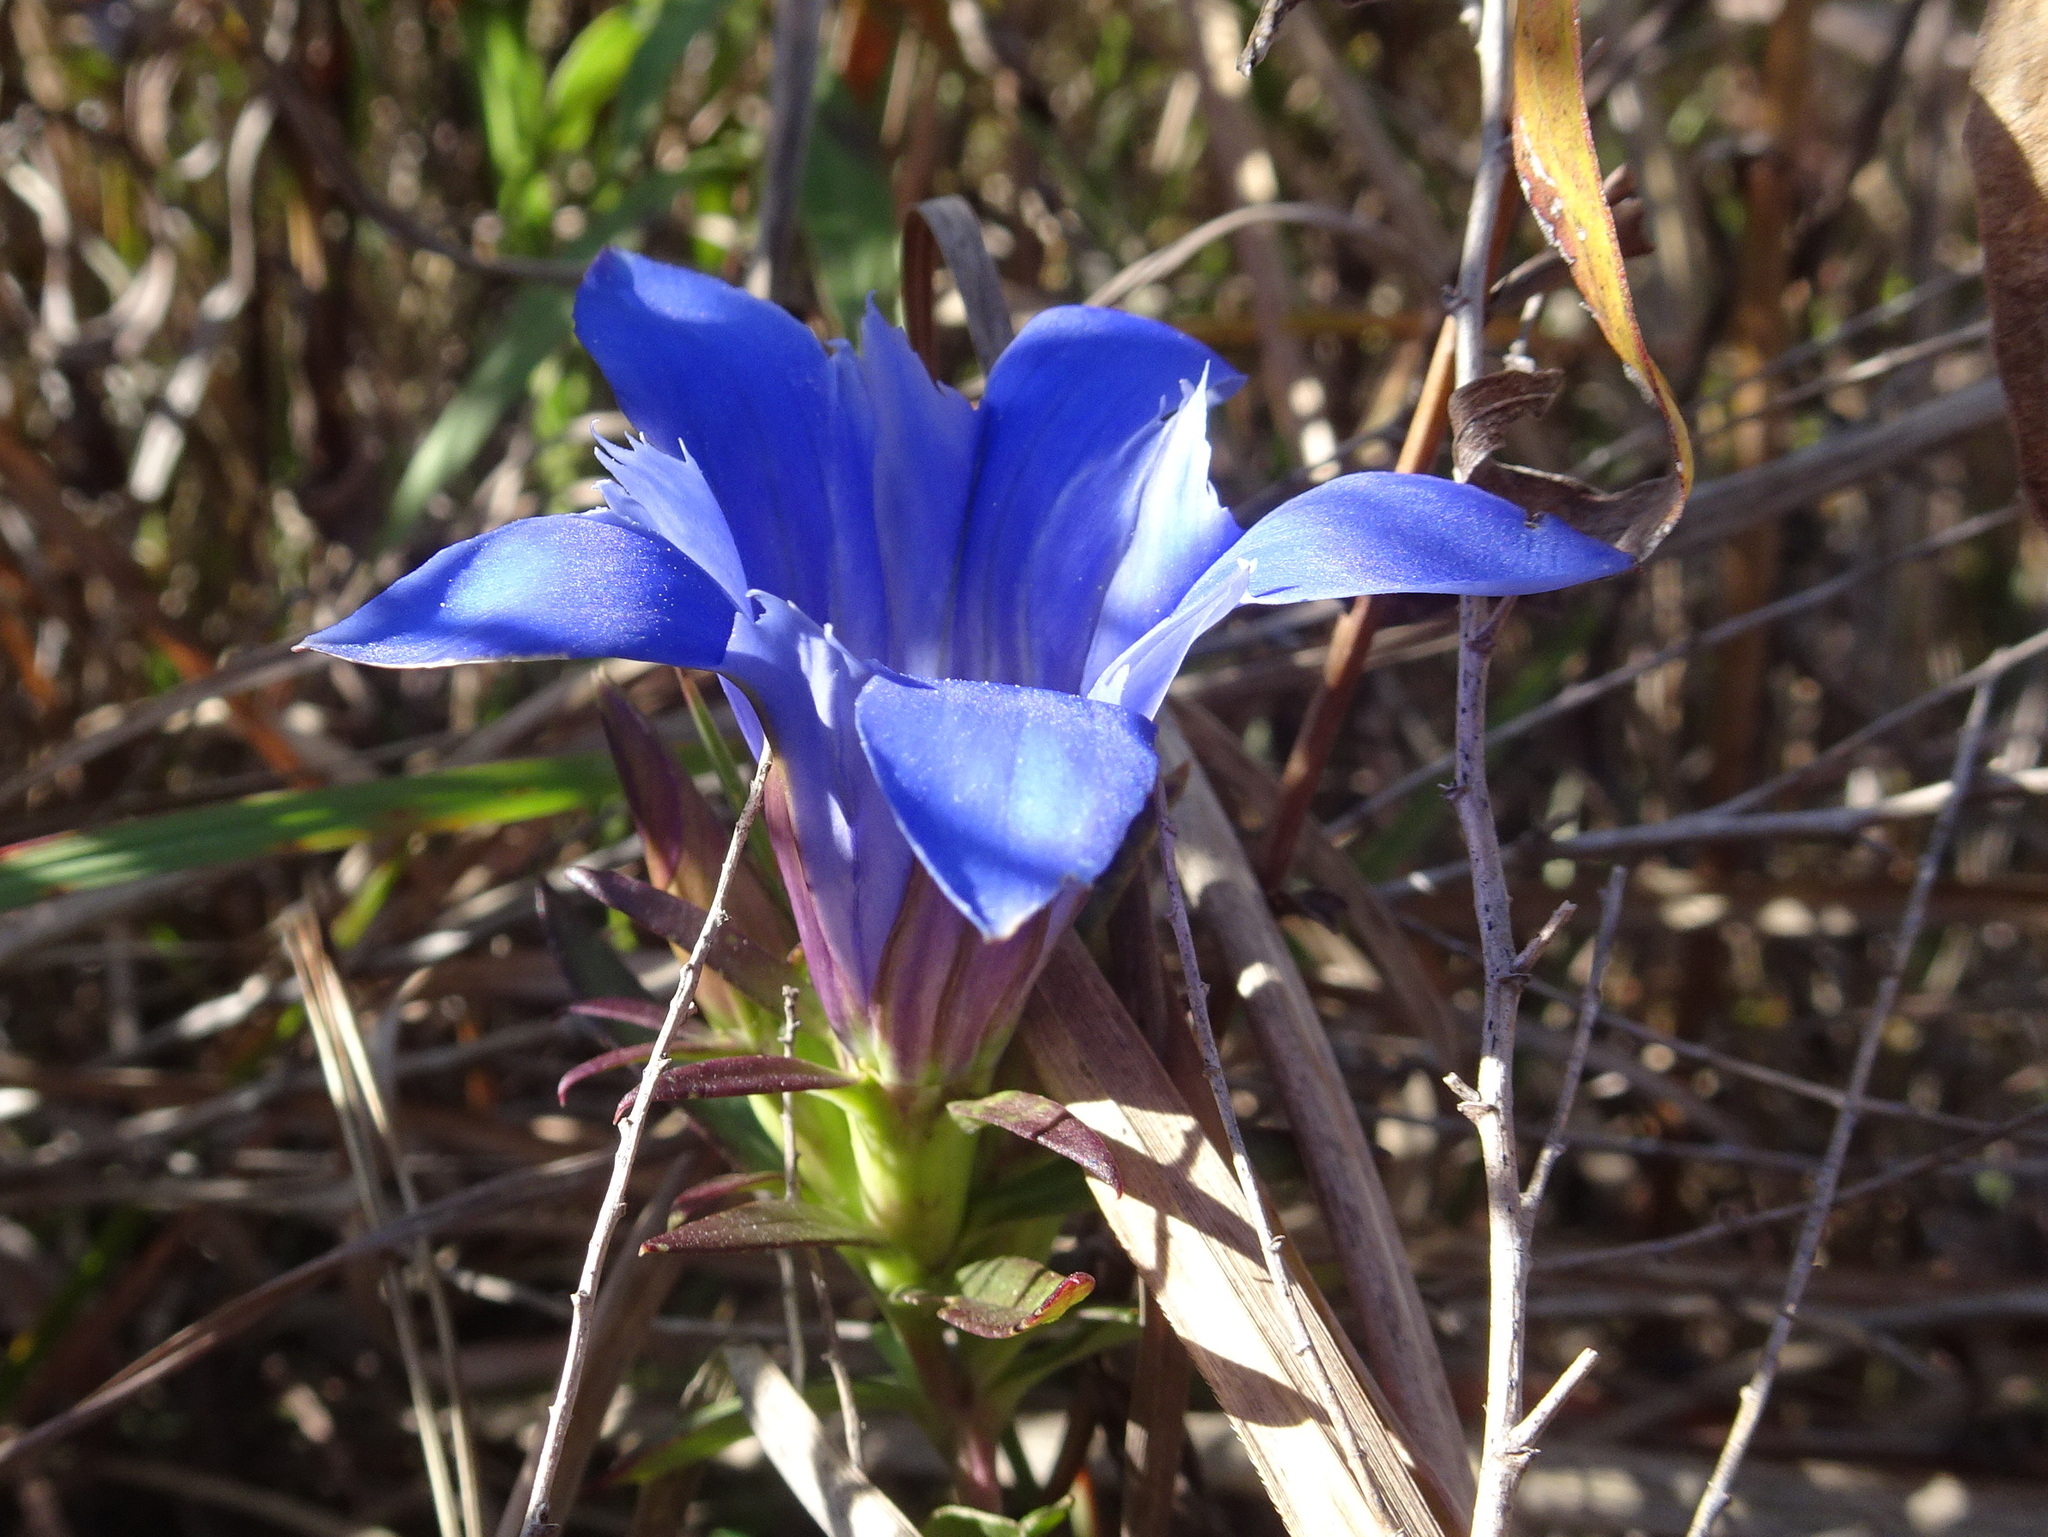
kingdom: Plantae
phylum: Tracheophyta
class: Magnoliopsida
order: Gentianales
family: Gentianaceae
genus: Gentiana
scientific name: Gentiana puberulenta
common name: Downy gentian
